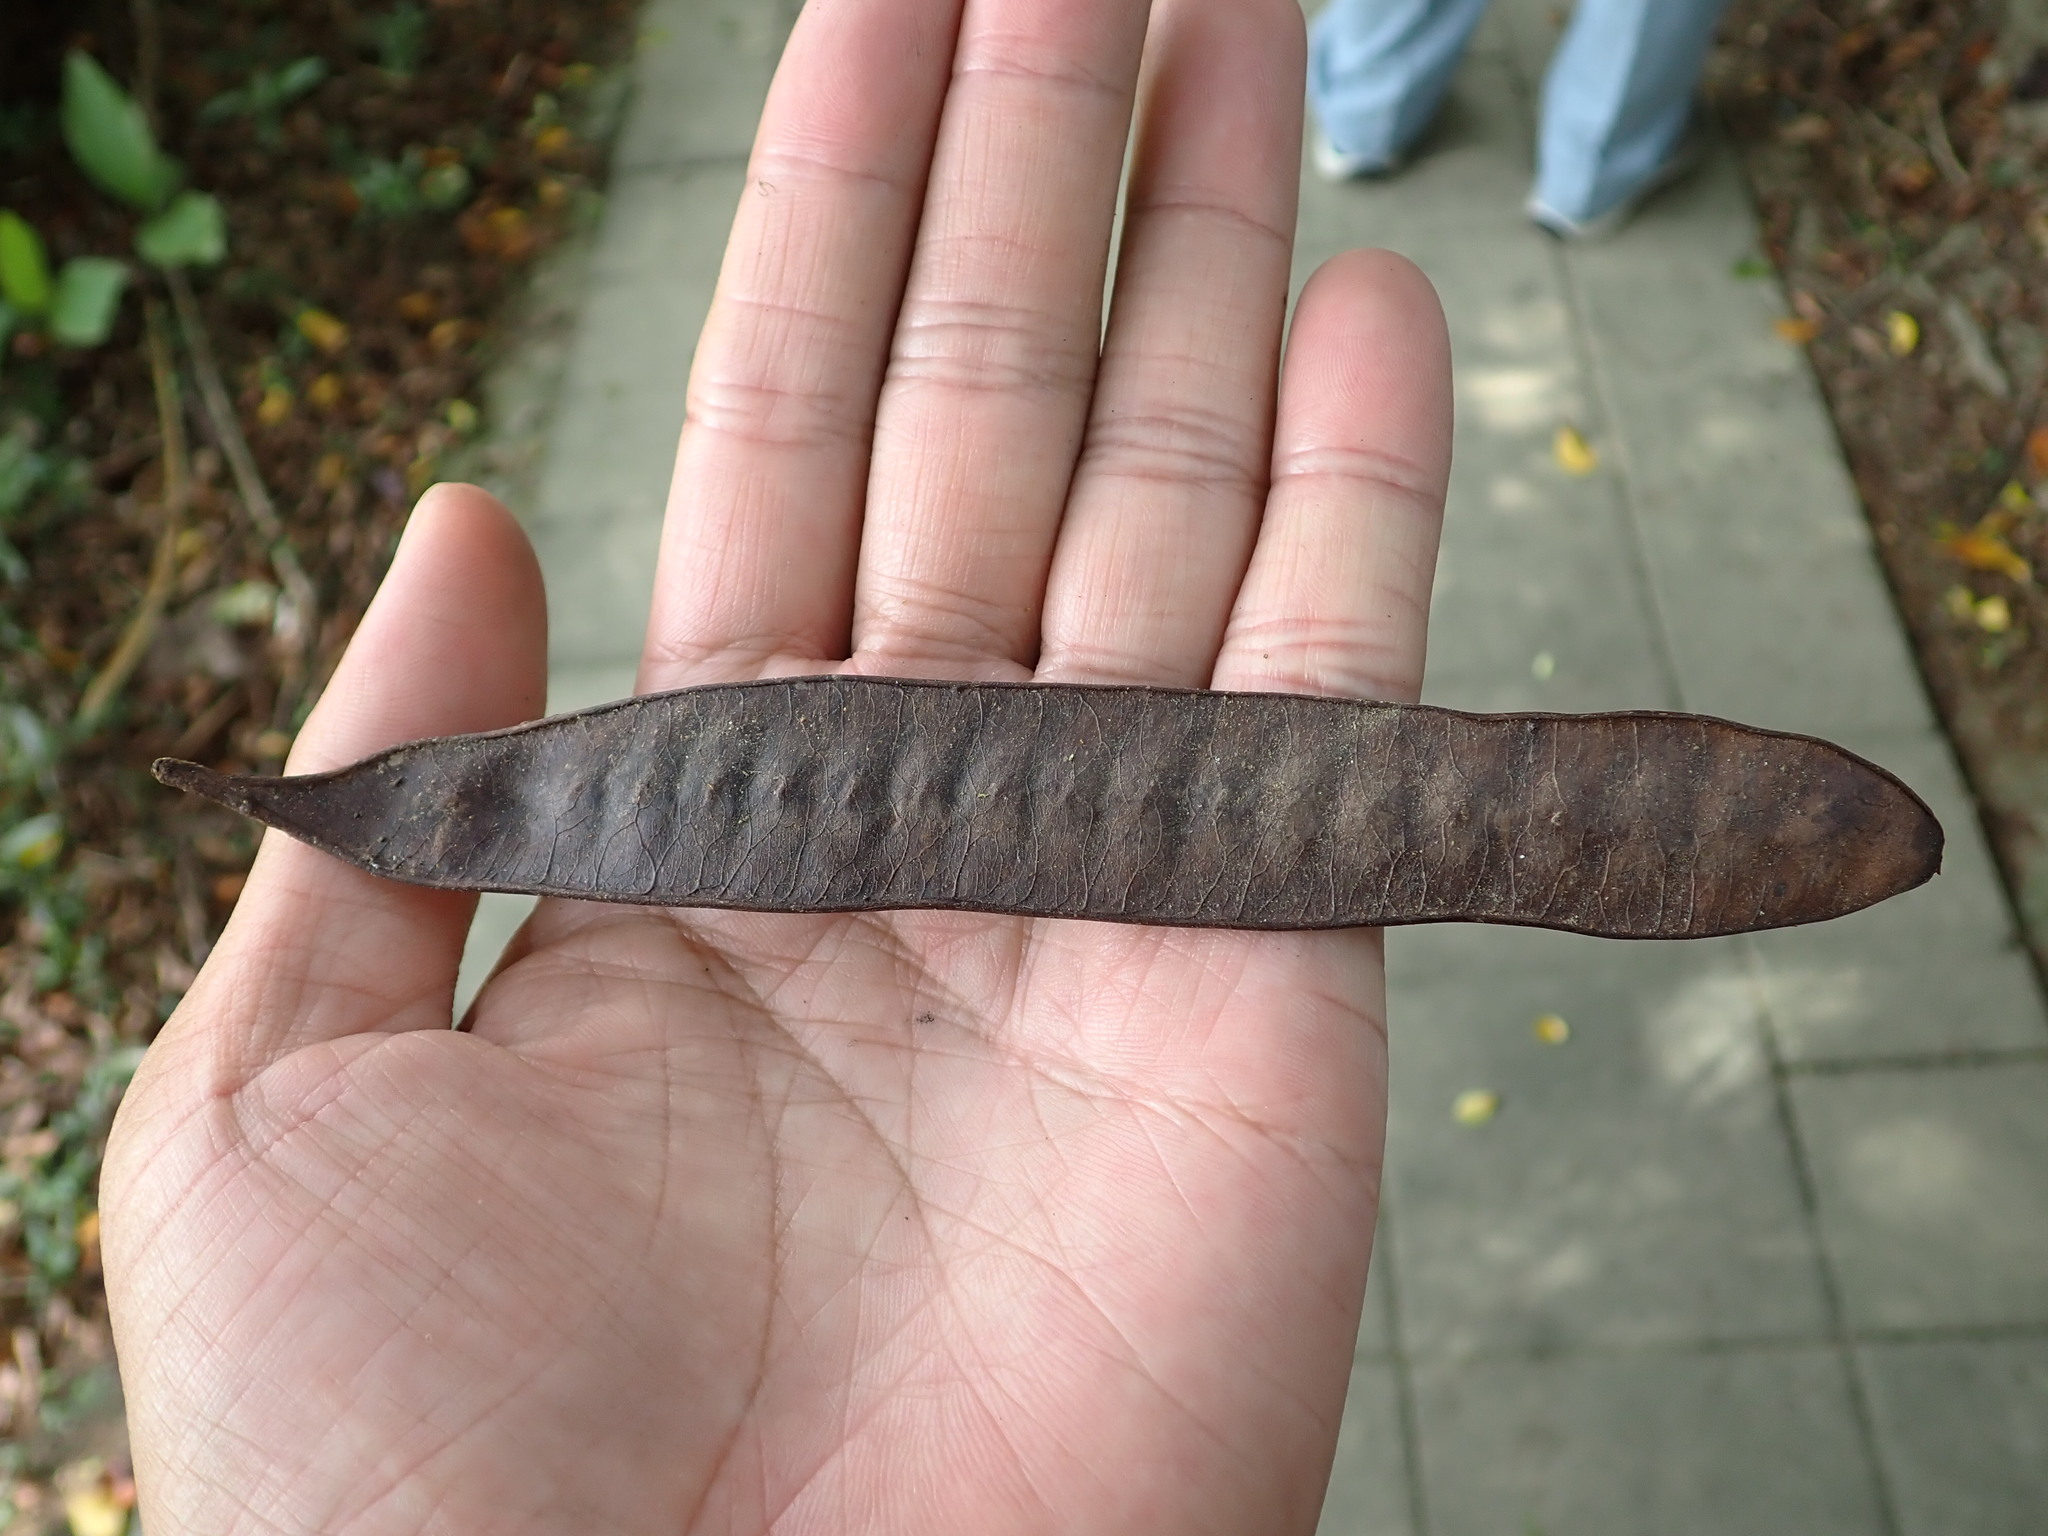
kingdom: Plantae
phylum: Tracheophyta
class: Magnoliopsida
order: Fabales
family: Fabaceae
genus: Leucaena
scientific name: Leucaena leucocephala
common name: White leadtree
